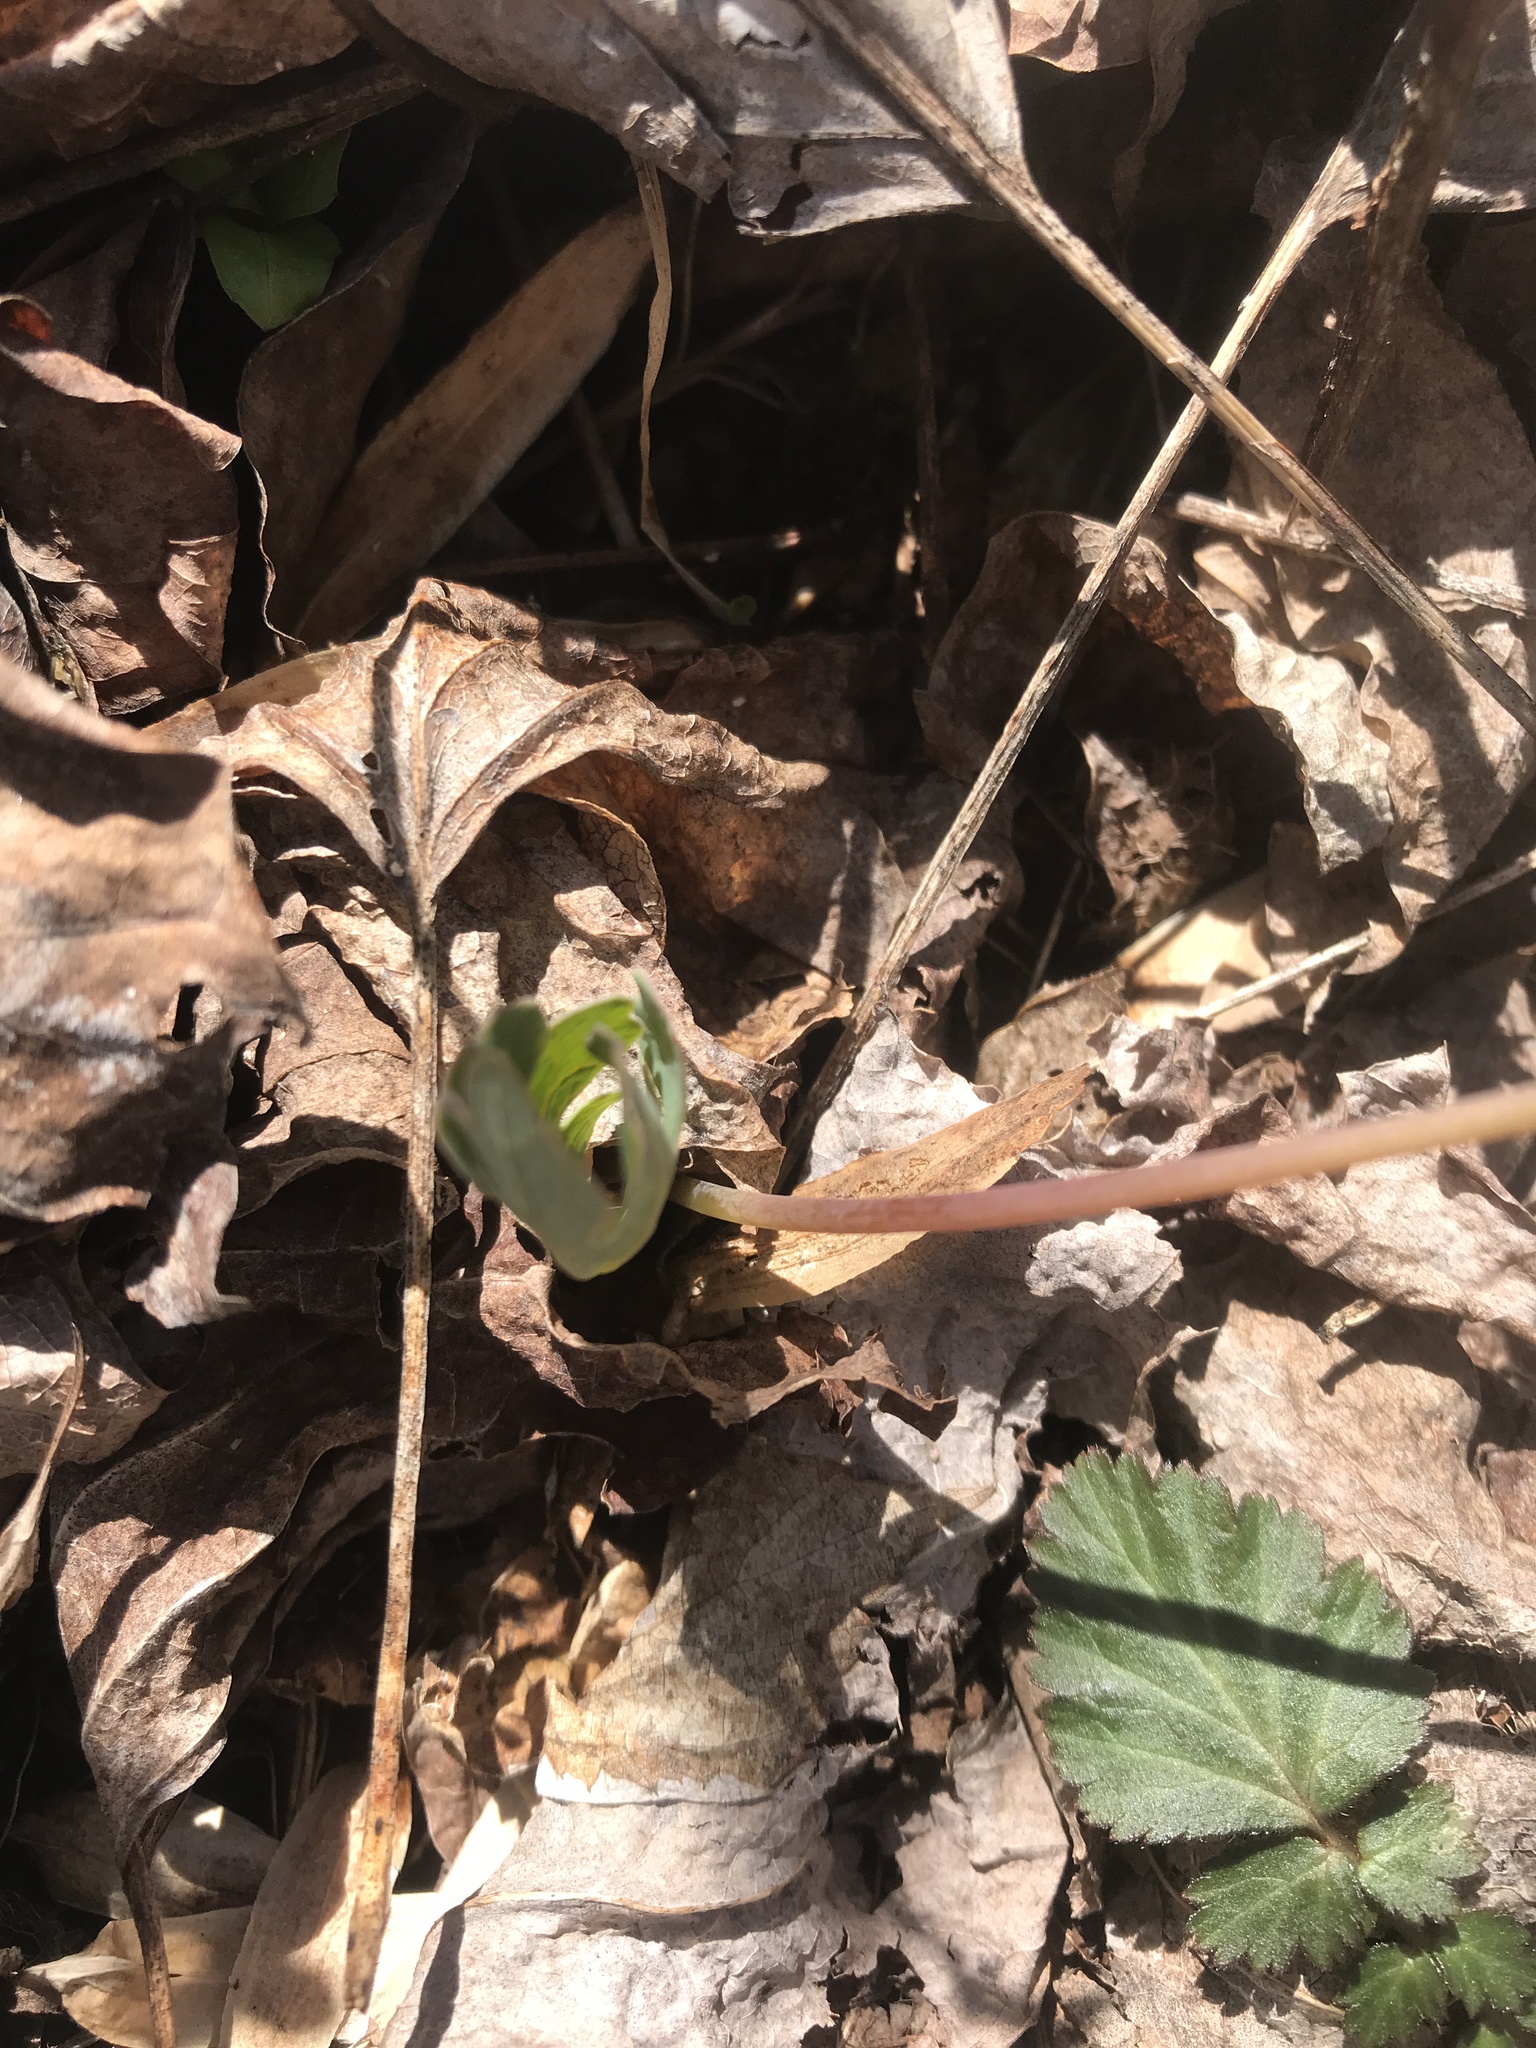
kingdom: Plantae
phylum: Tracheophyta
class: Magnoliopsida
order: Ranunculales
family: Papaveraceae
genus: Sanguinaria
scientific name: Sanguinaria canadensis
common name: Bloodroot
